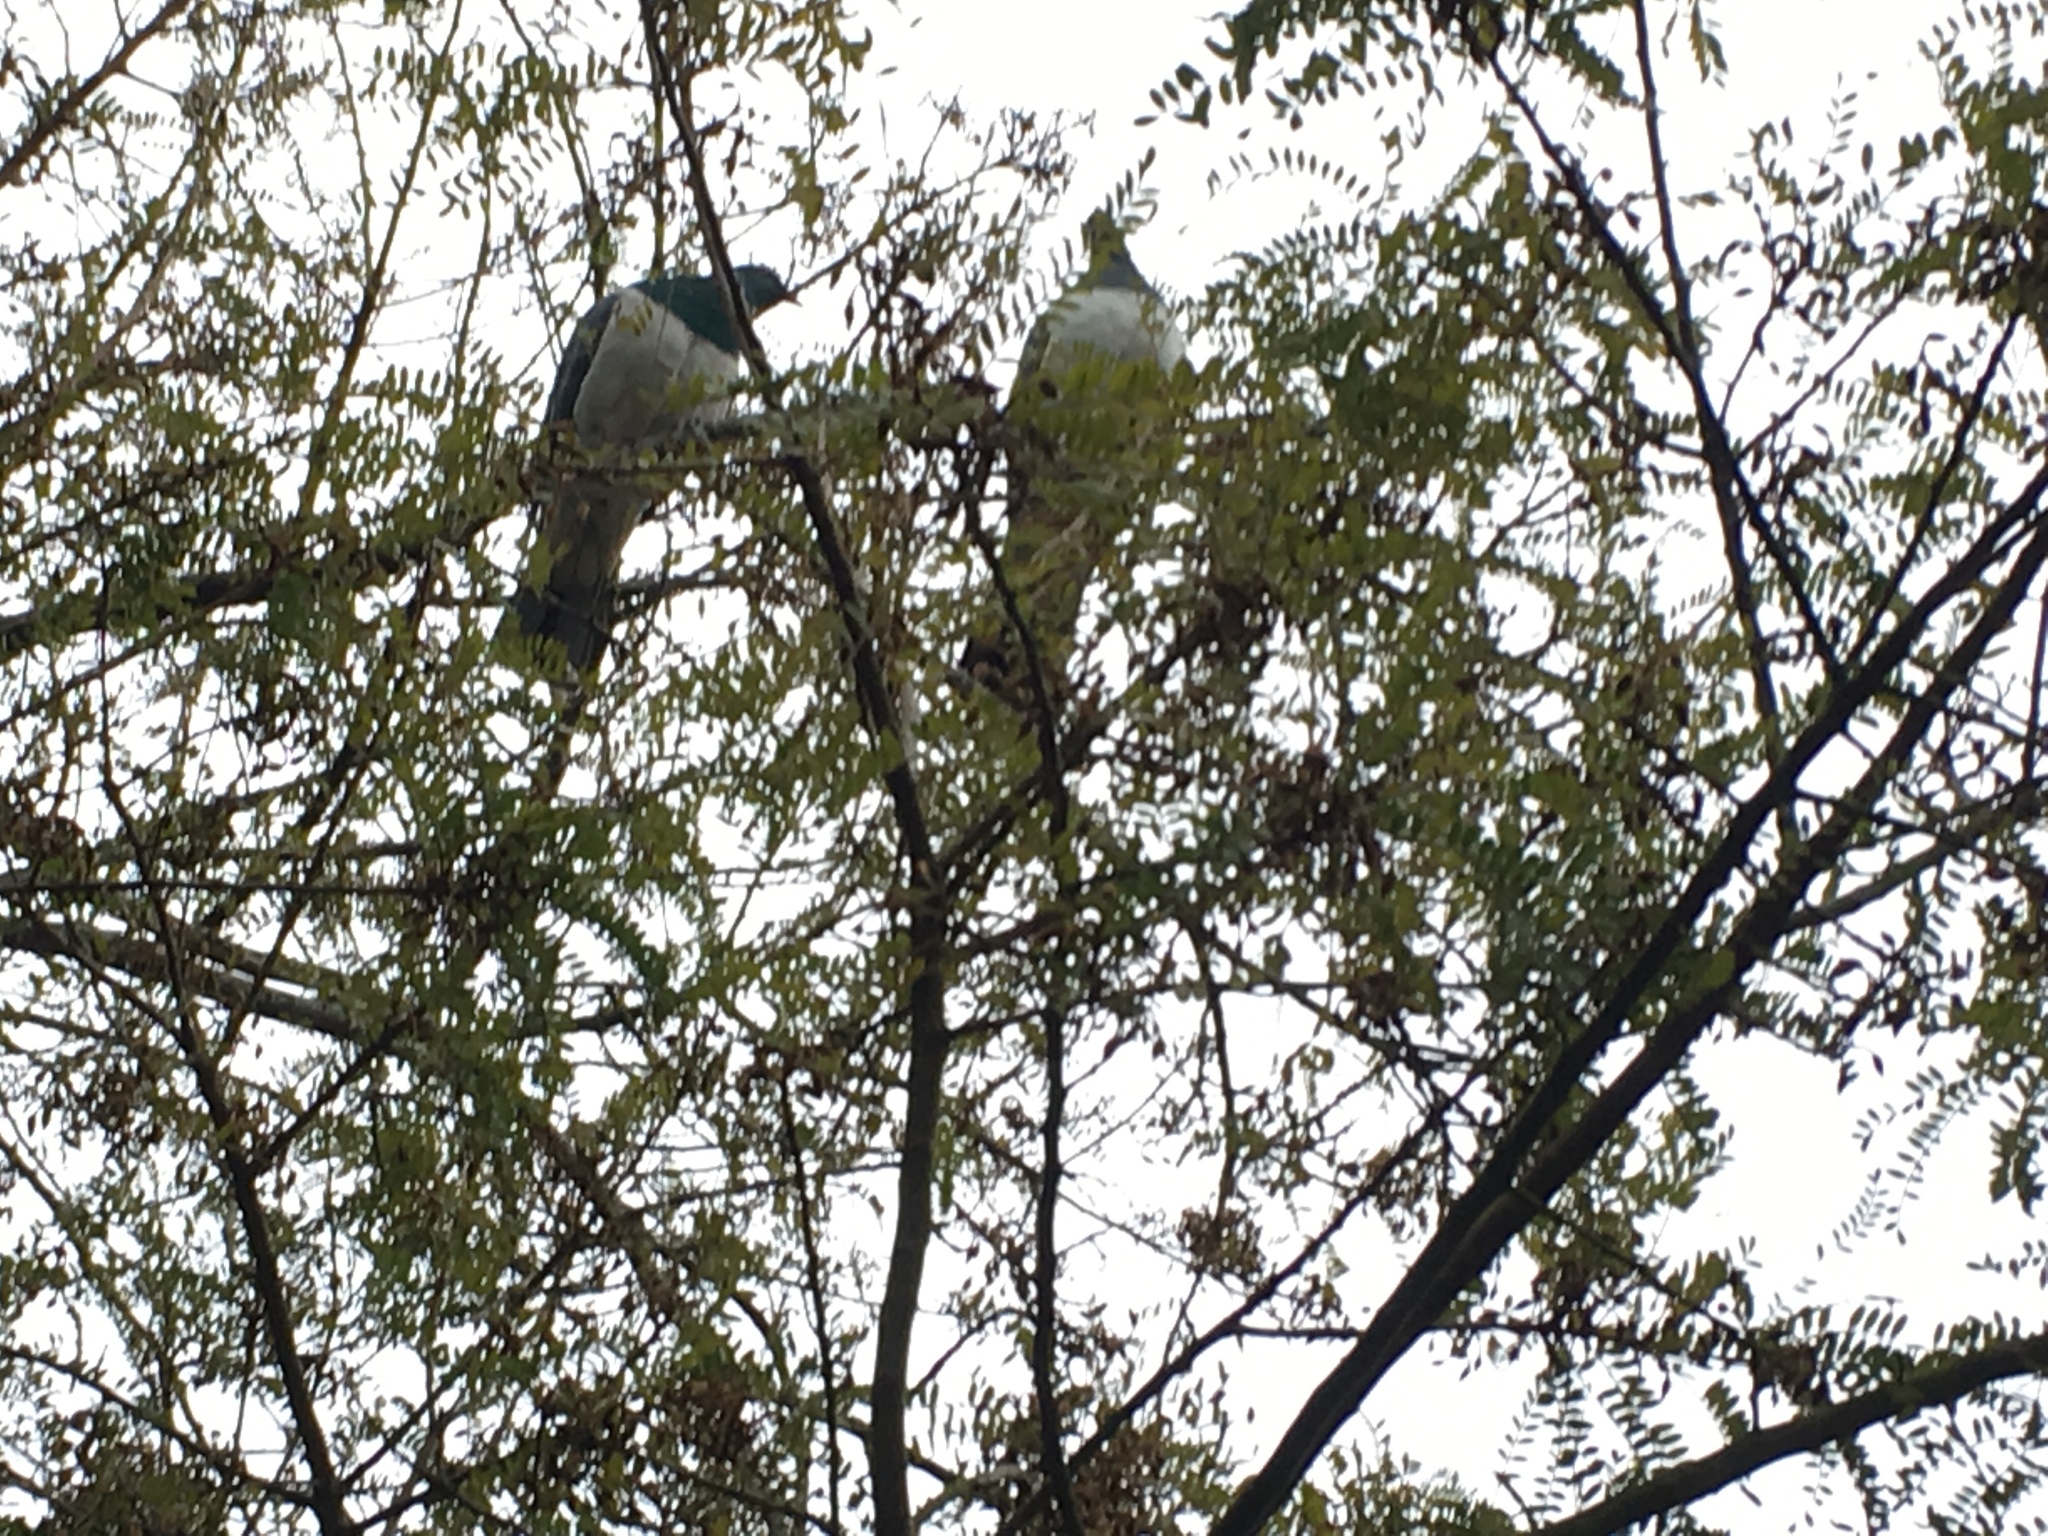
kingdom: Animalia
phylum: Chordata
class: Aves
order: Columbiformes
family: Columbidae
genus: Hemiphaga
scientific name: Hemiphaga novaeseelandiae
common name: New zealand pigeon
